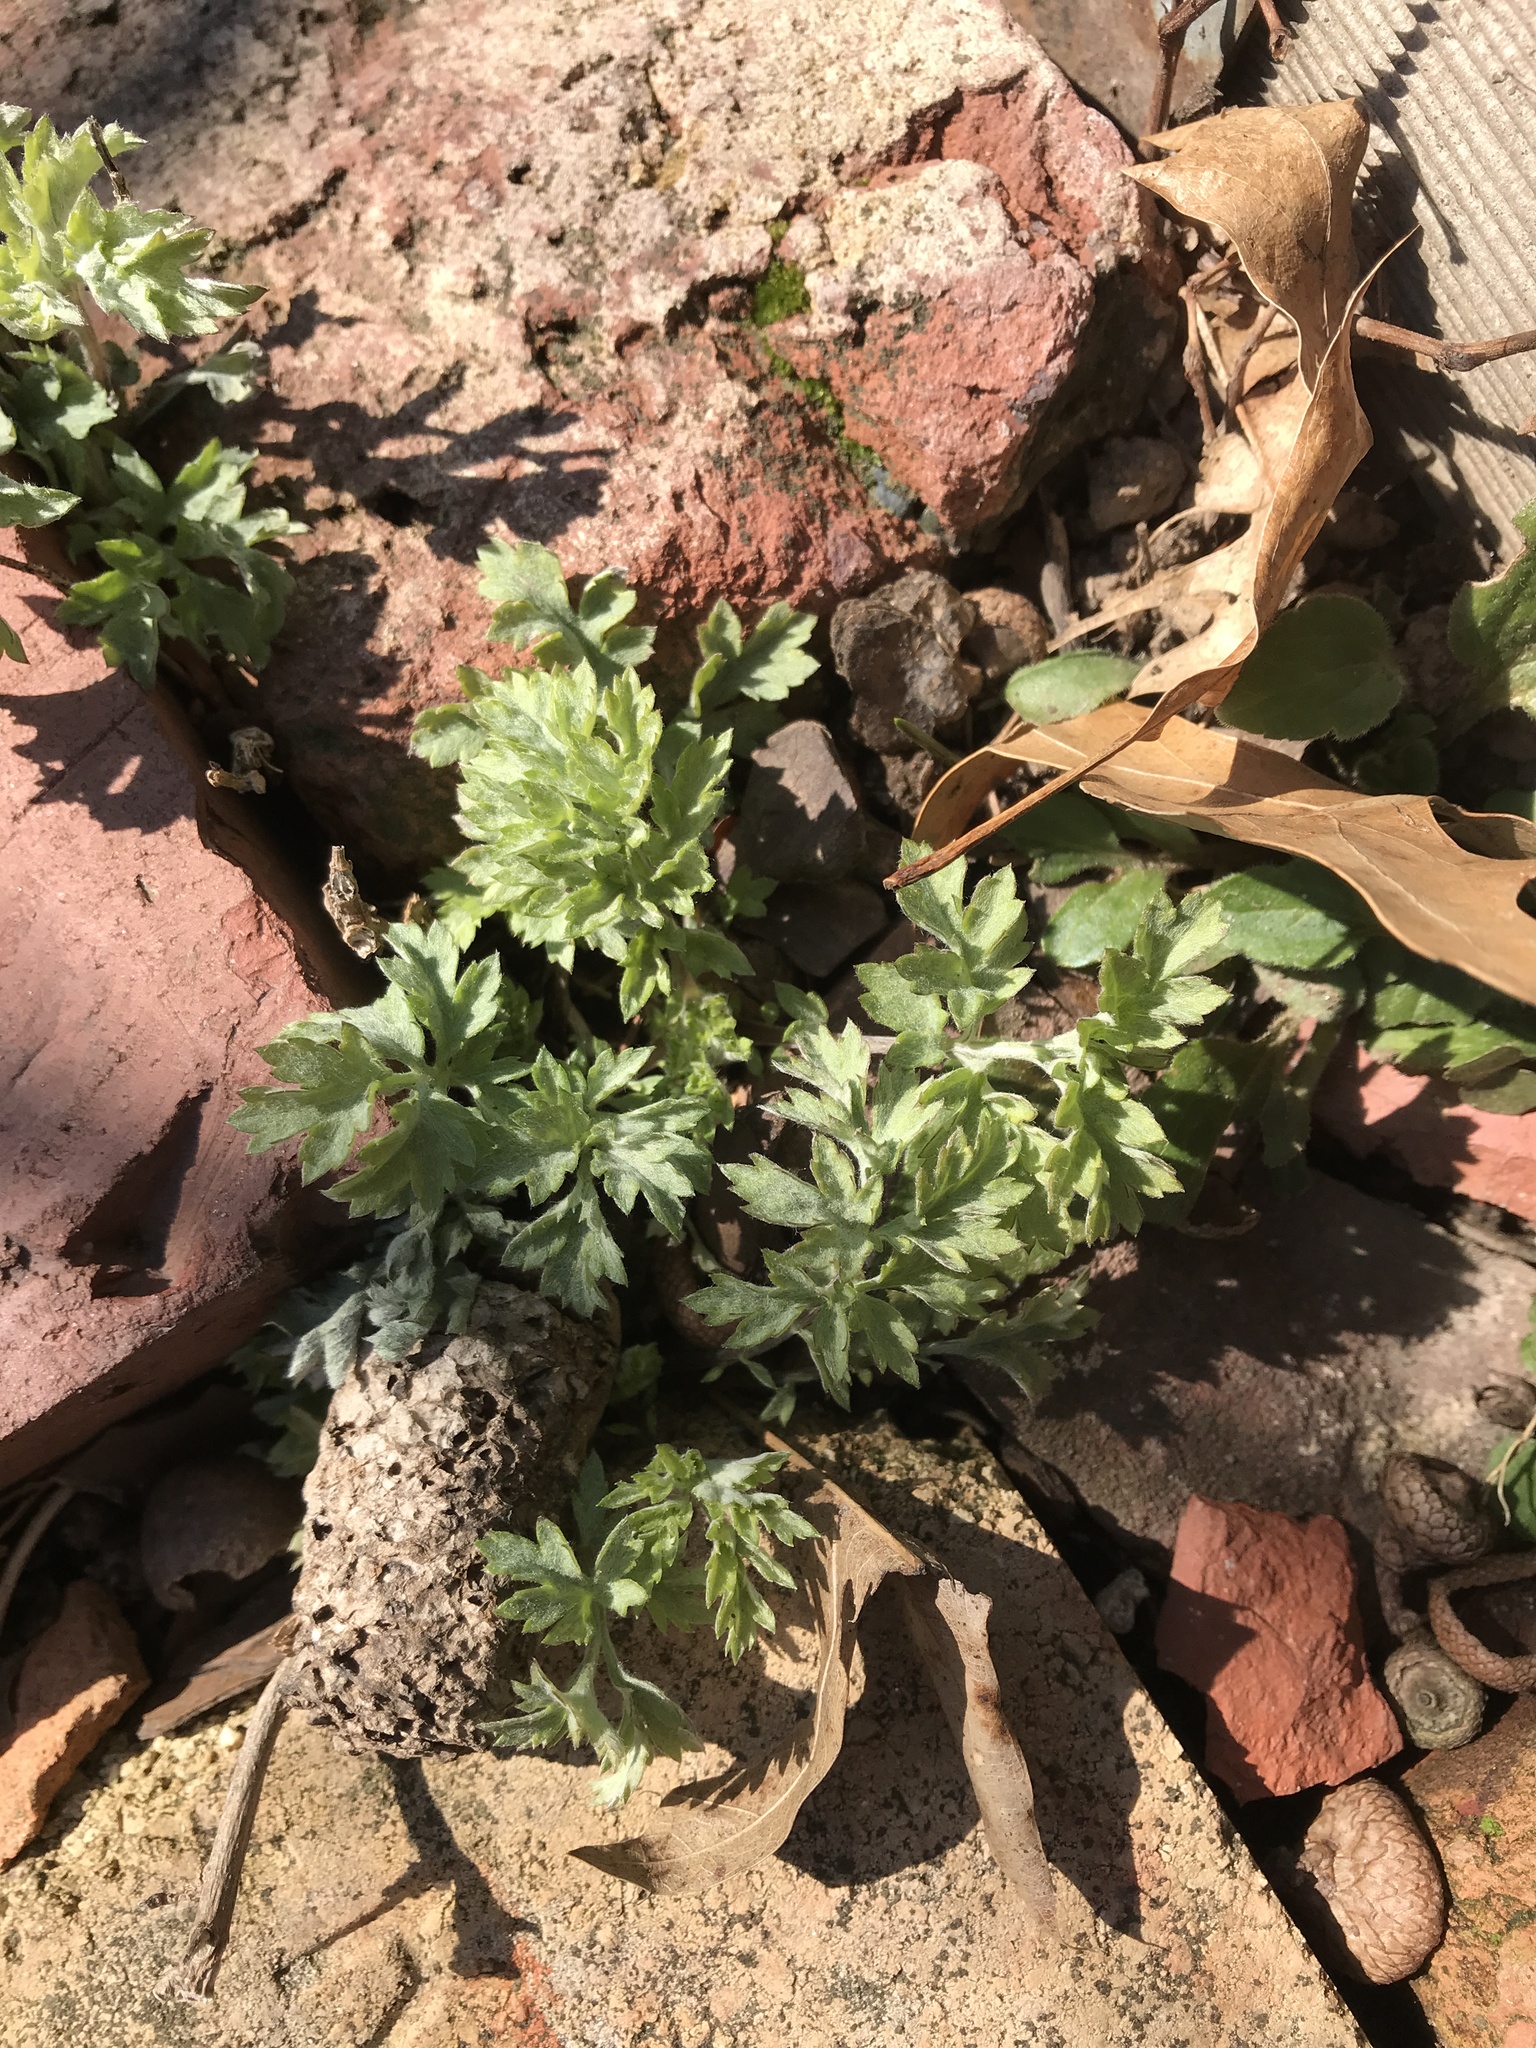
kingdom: Plantae
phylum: Tracheophyta
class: Magnoliopsida
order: Asterales
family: Asteraceae
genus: Artemisia
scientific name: Artemisia vulgaris
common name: Mugwort
